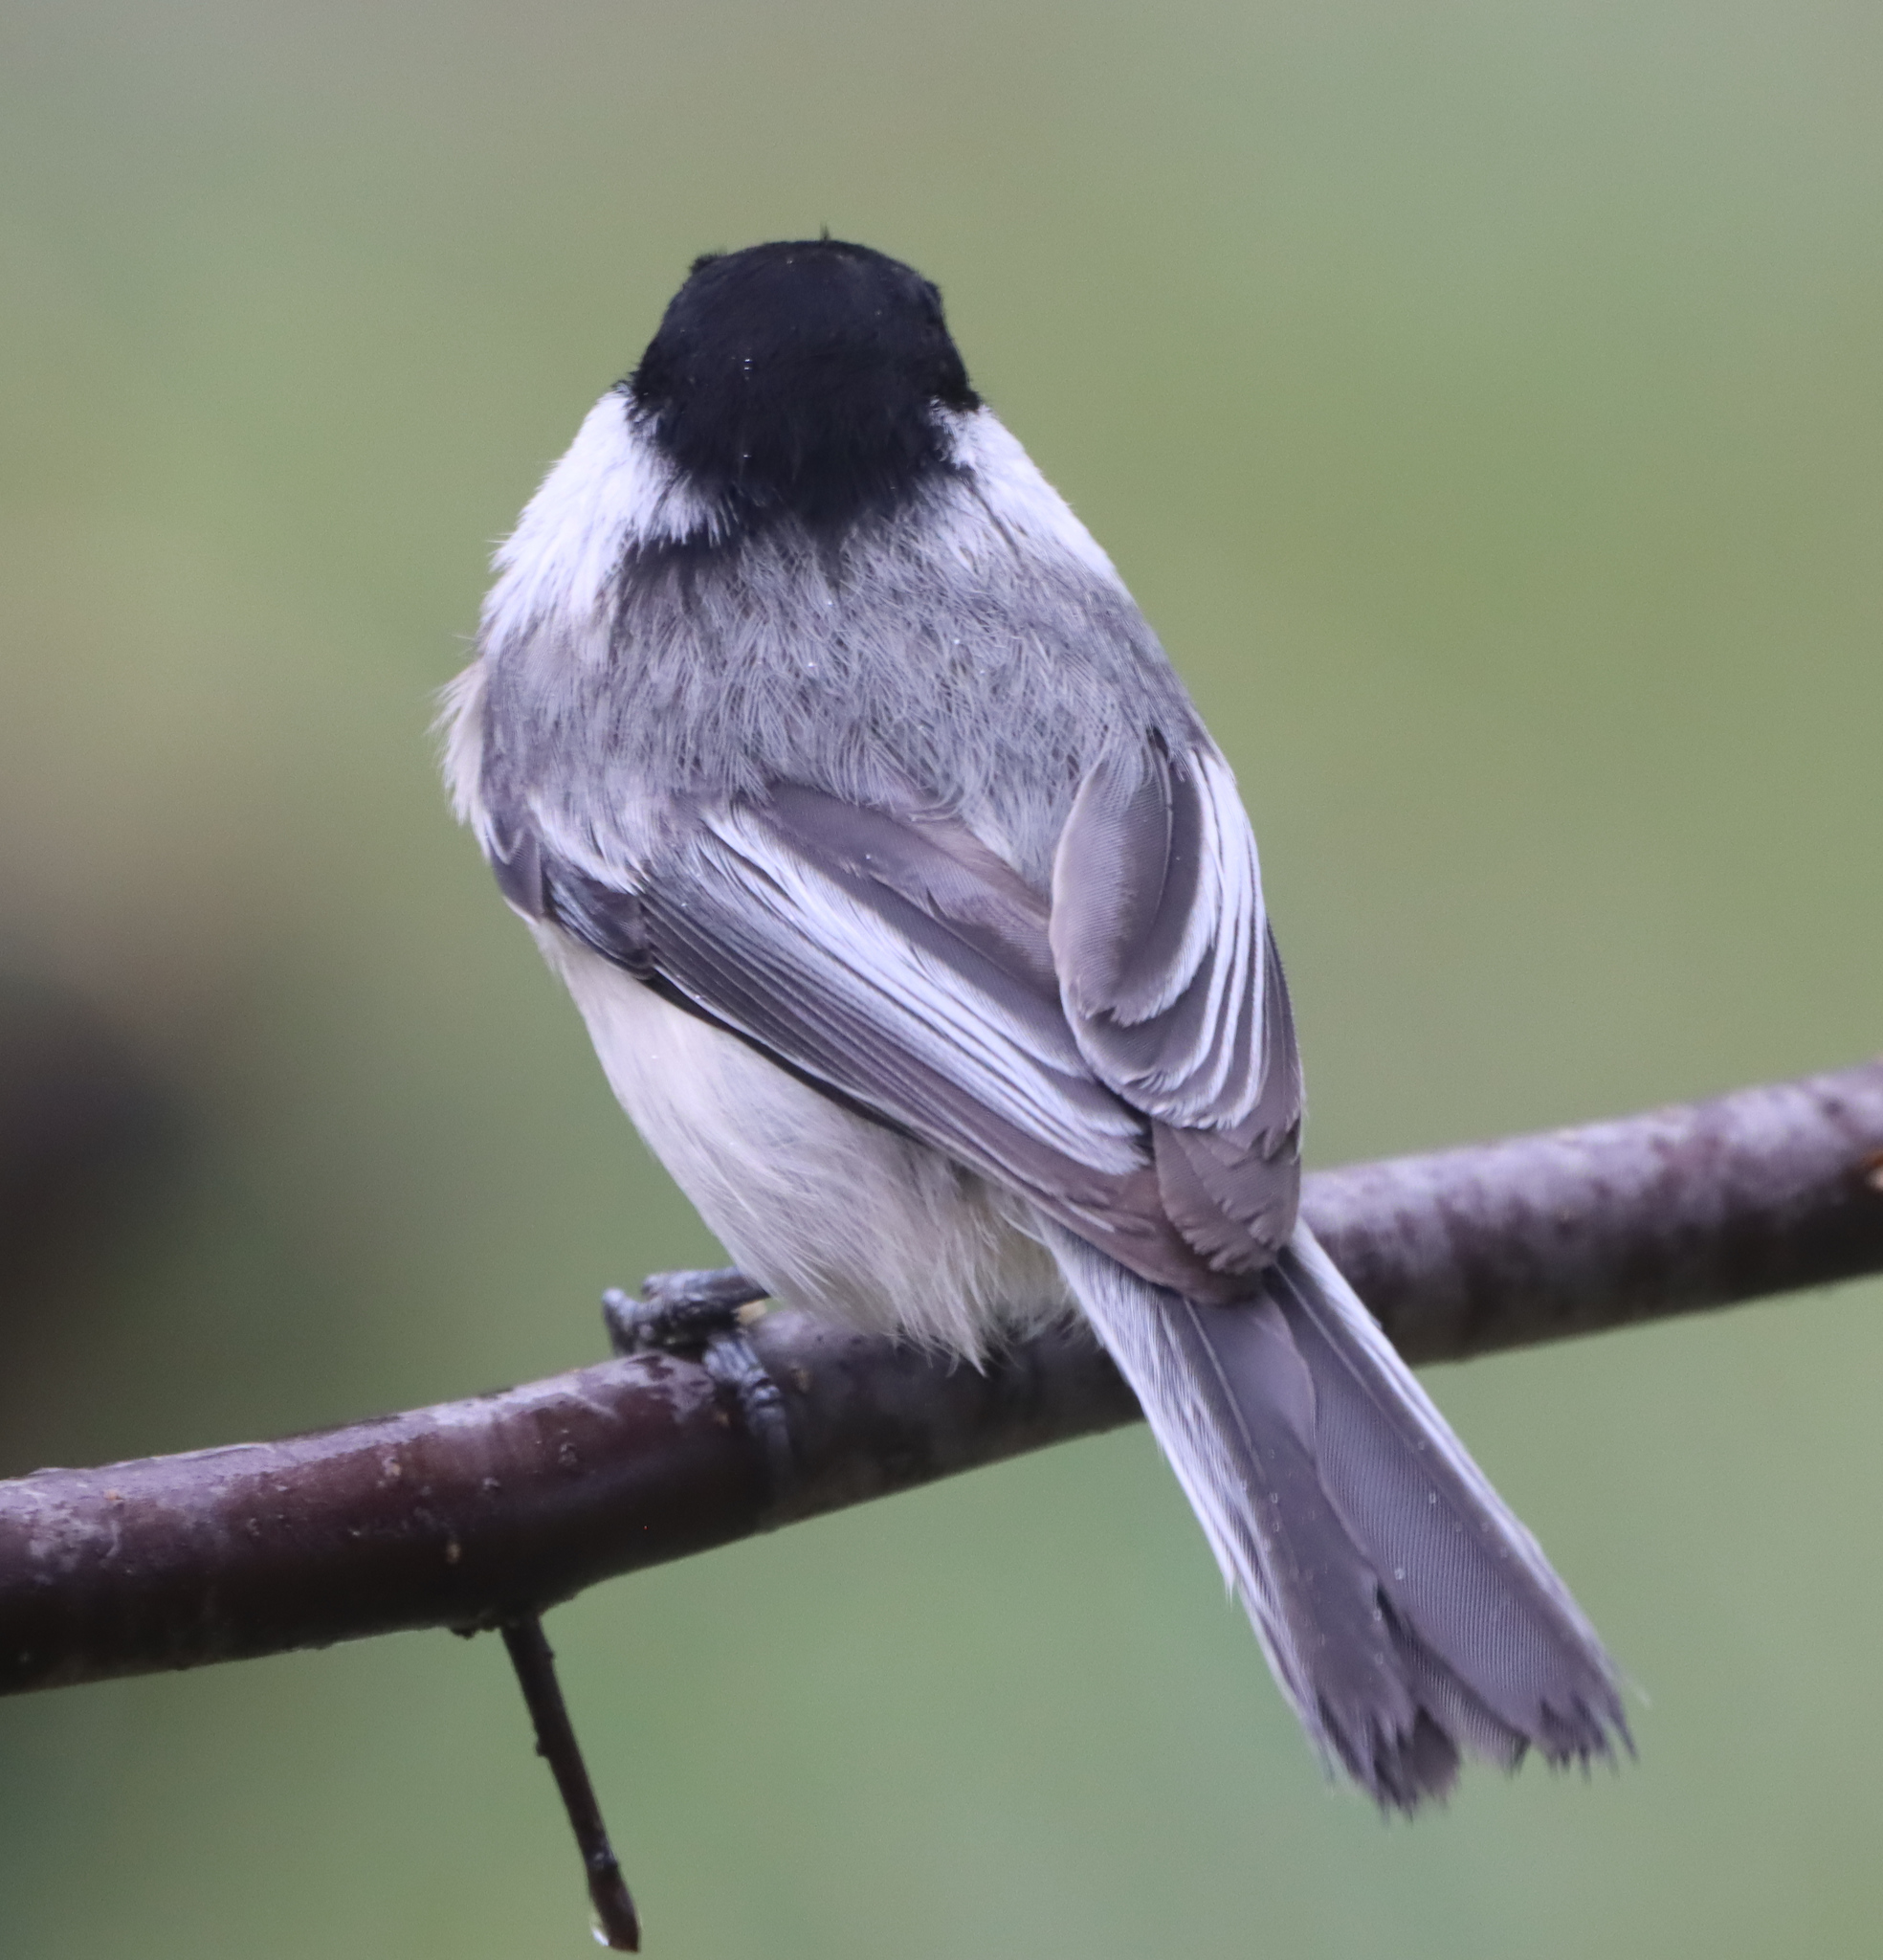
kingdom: Animalia
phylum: Chordata
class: Aves
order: Passeriformes
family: Paridae
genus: Poecile
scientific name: Poecile atricapillus
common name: Black-capped chickadee
